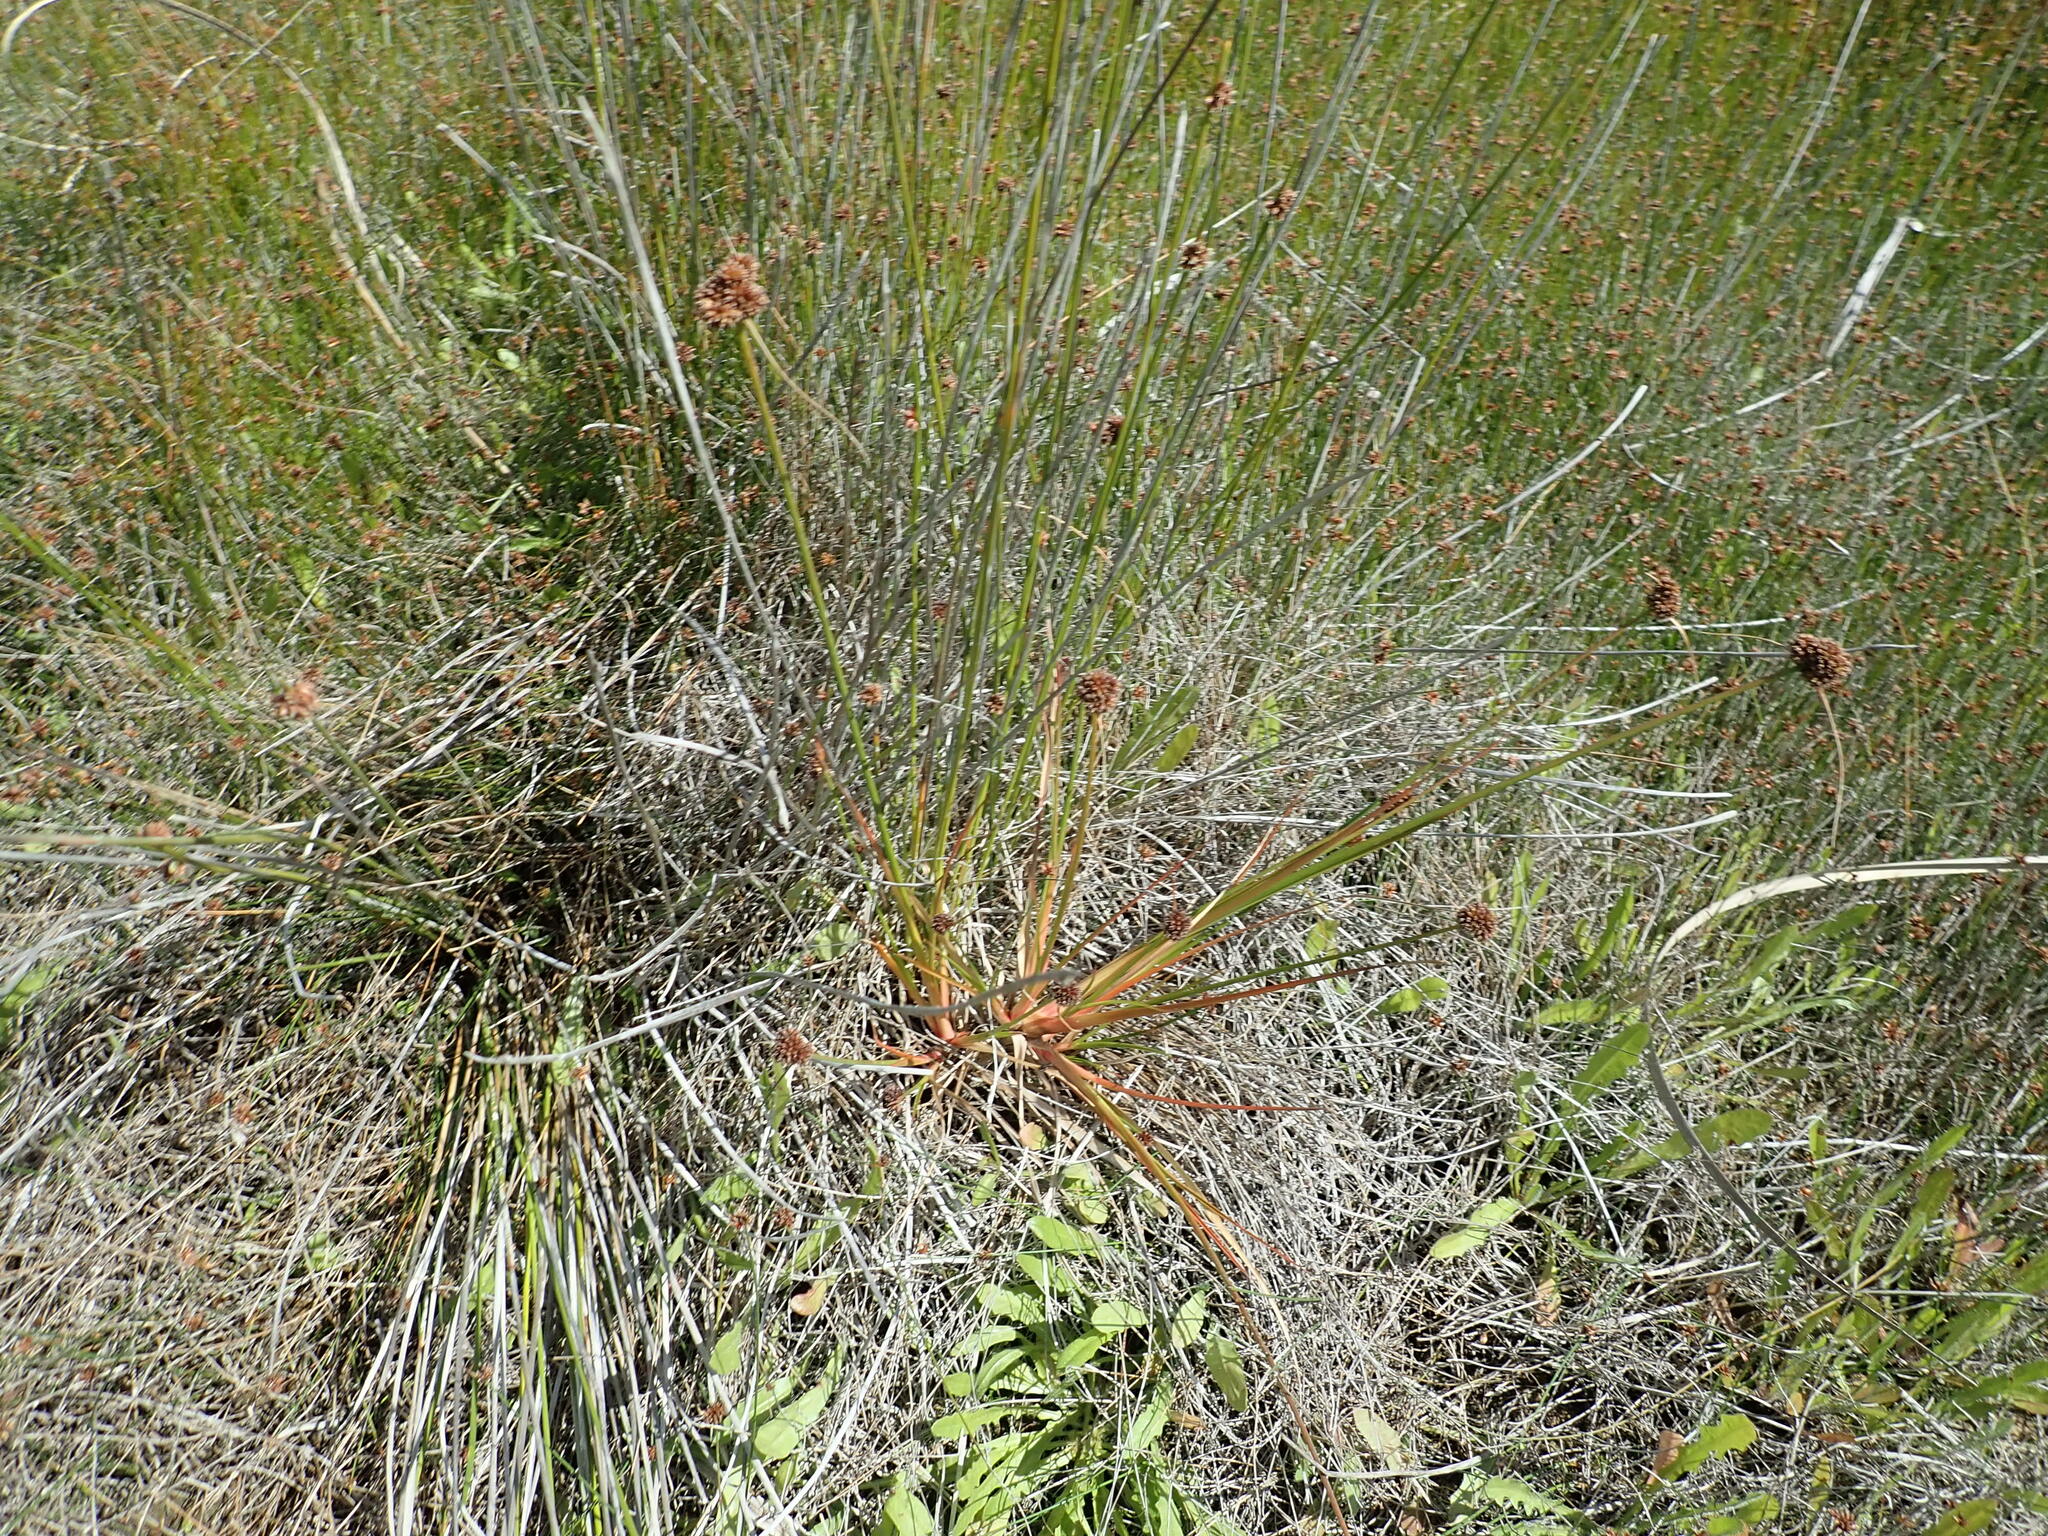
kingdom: Plantae
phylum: Tracheophyta
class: Liliopsida
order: Poales
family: Juncaceae
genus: Juncus
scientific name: Juncus caespiticius
